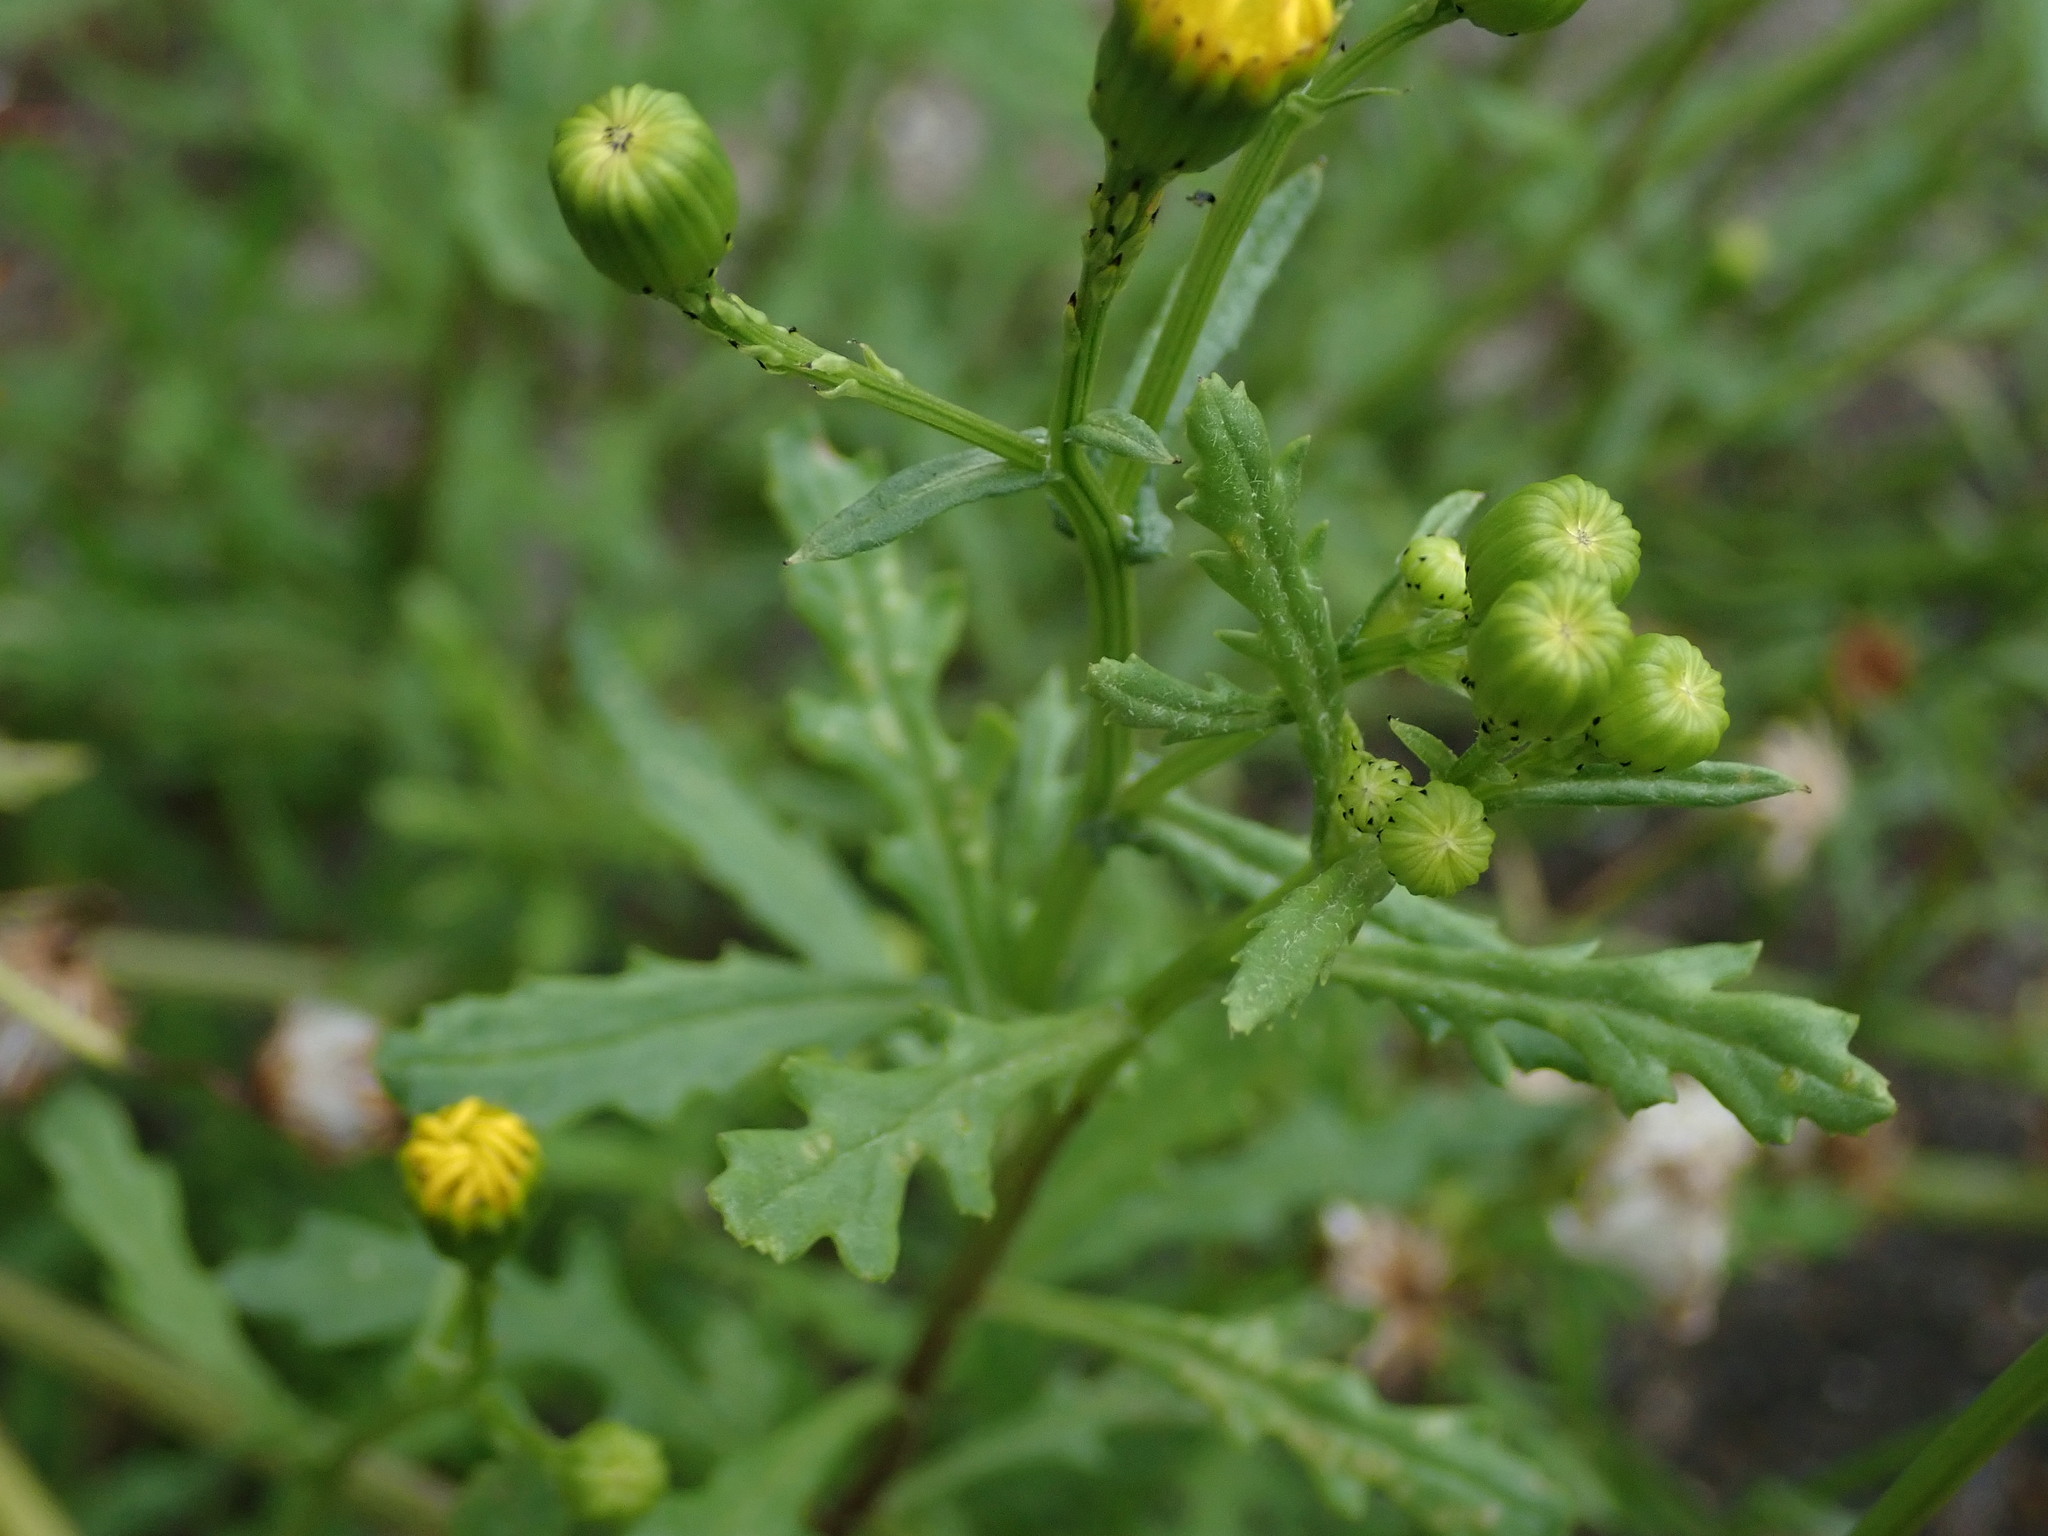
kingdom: Plantae
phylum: Tracheophyta
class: Magnoliopsida
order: Asterales
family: Asteraceae
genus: Senecio
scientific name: Senecio squalidus
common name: Oxford ragwort
